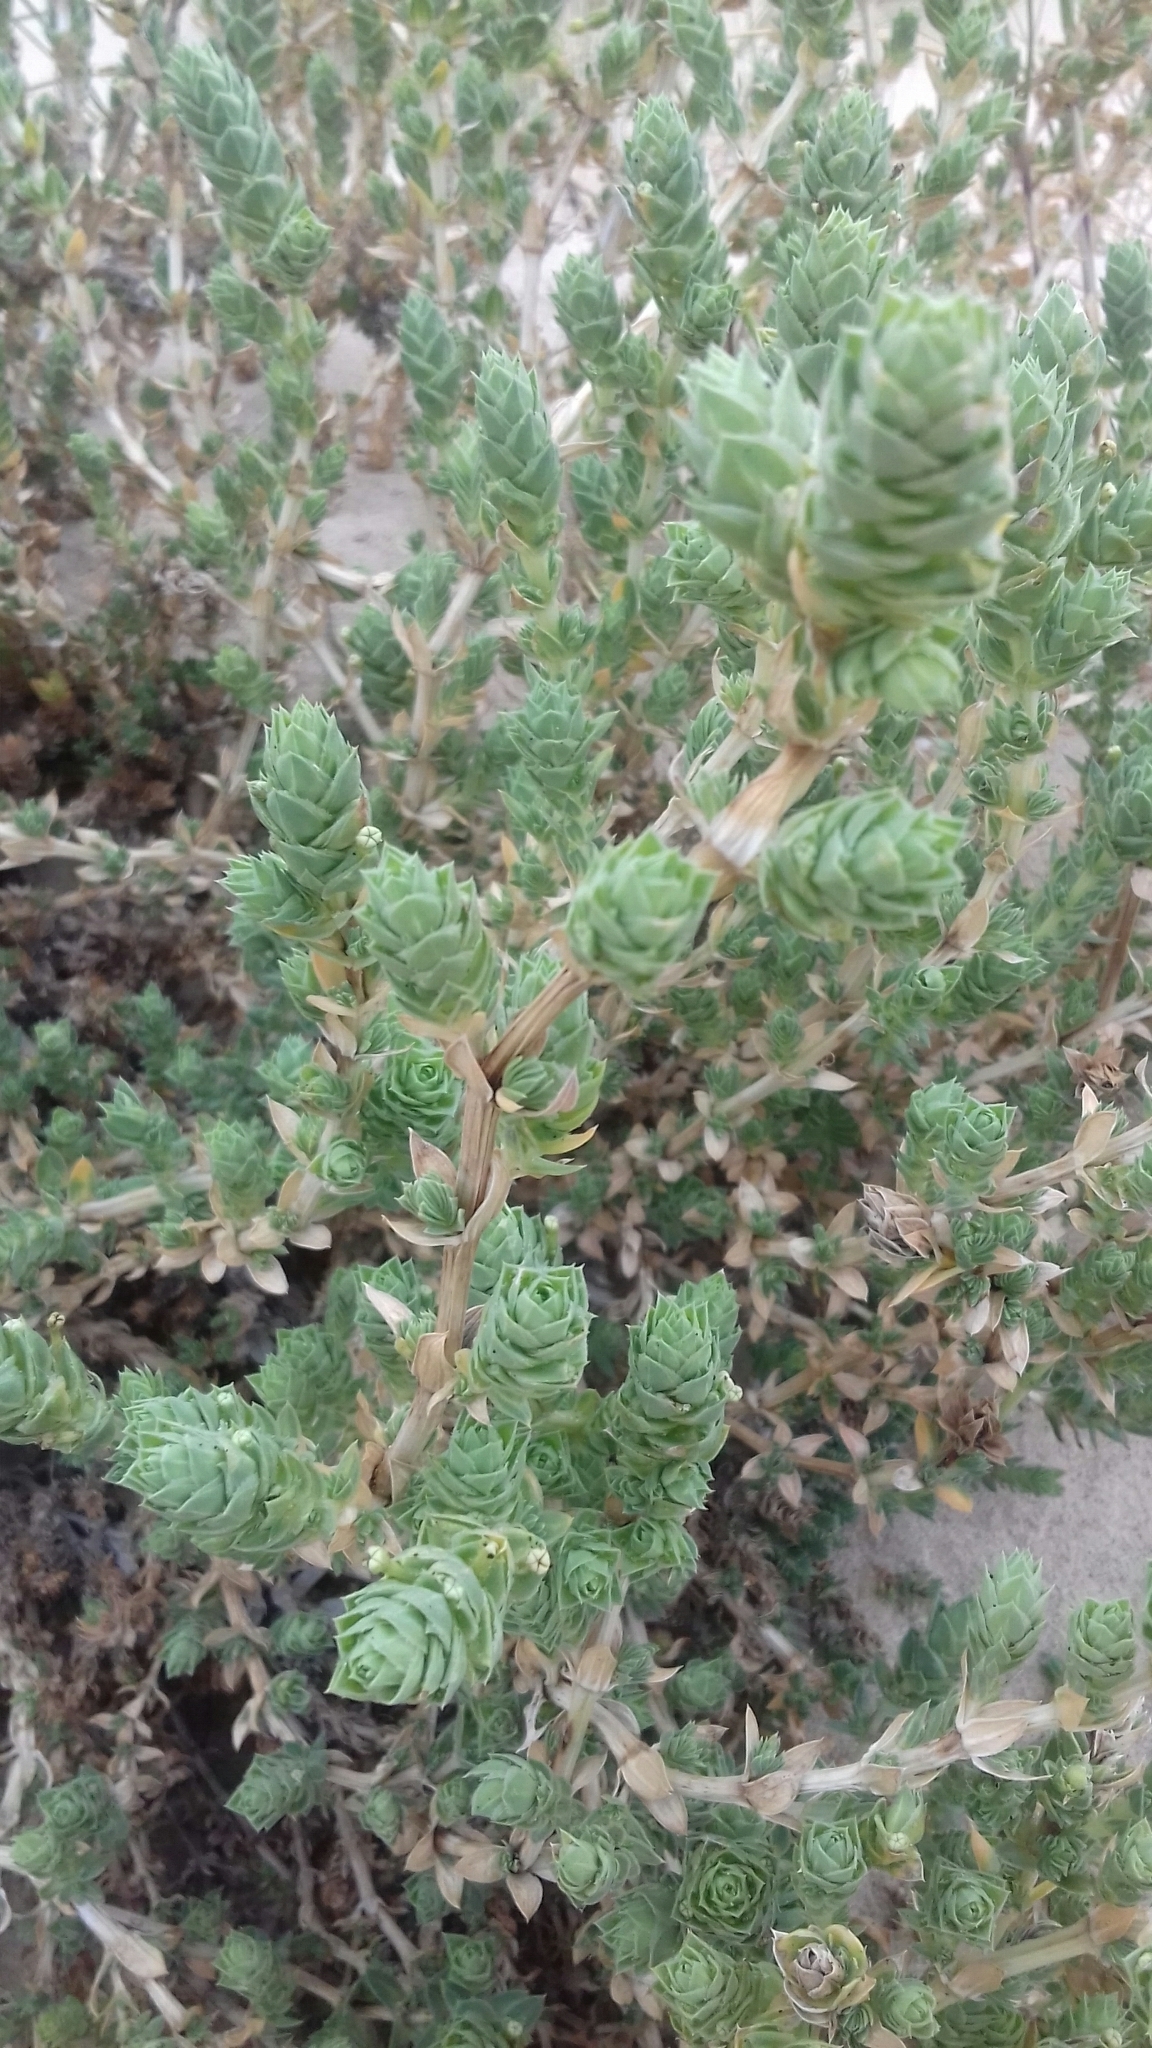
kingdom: Plantae
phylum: Tracheophyta
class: Magnoliopsida
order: Gentianales
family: Rubiaceae
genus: Crucianella
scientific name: Crucianella maritima
